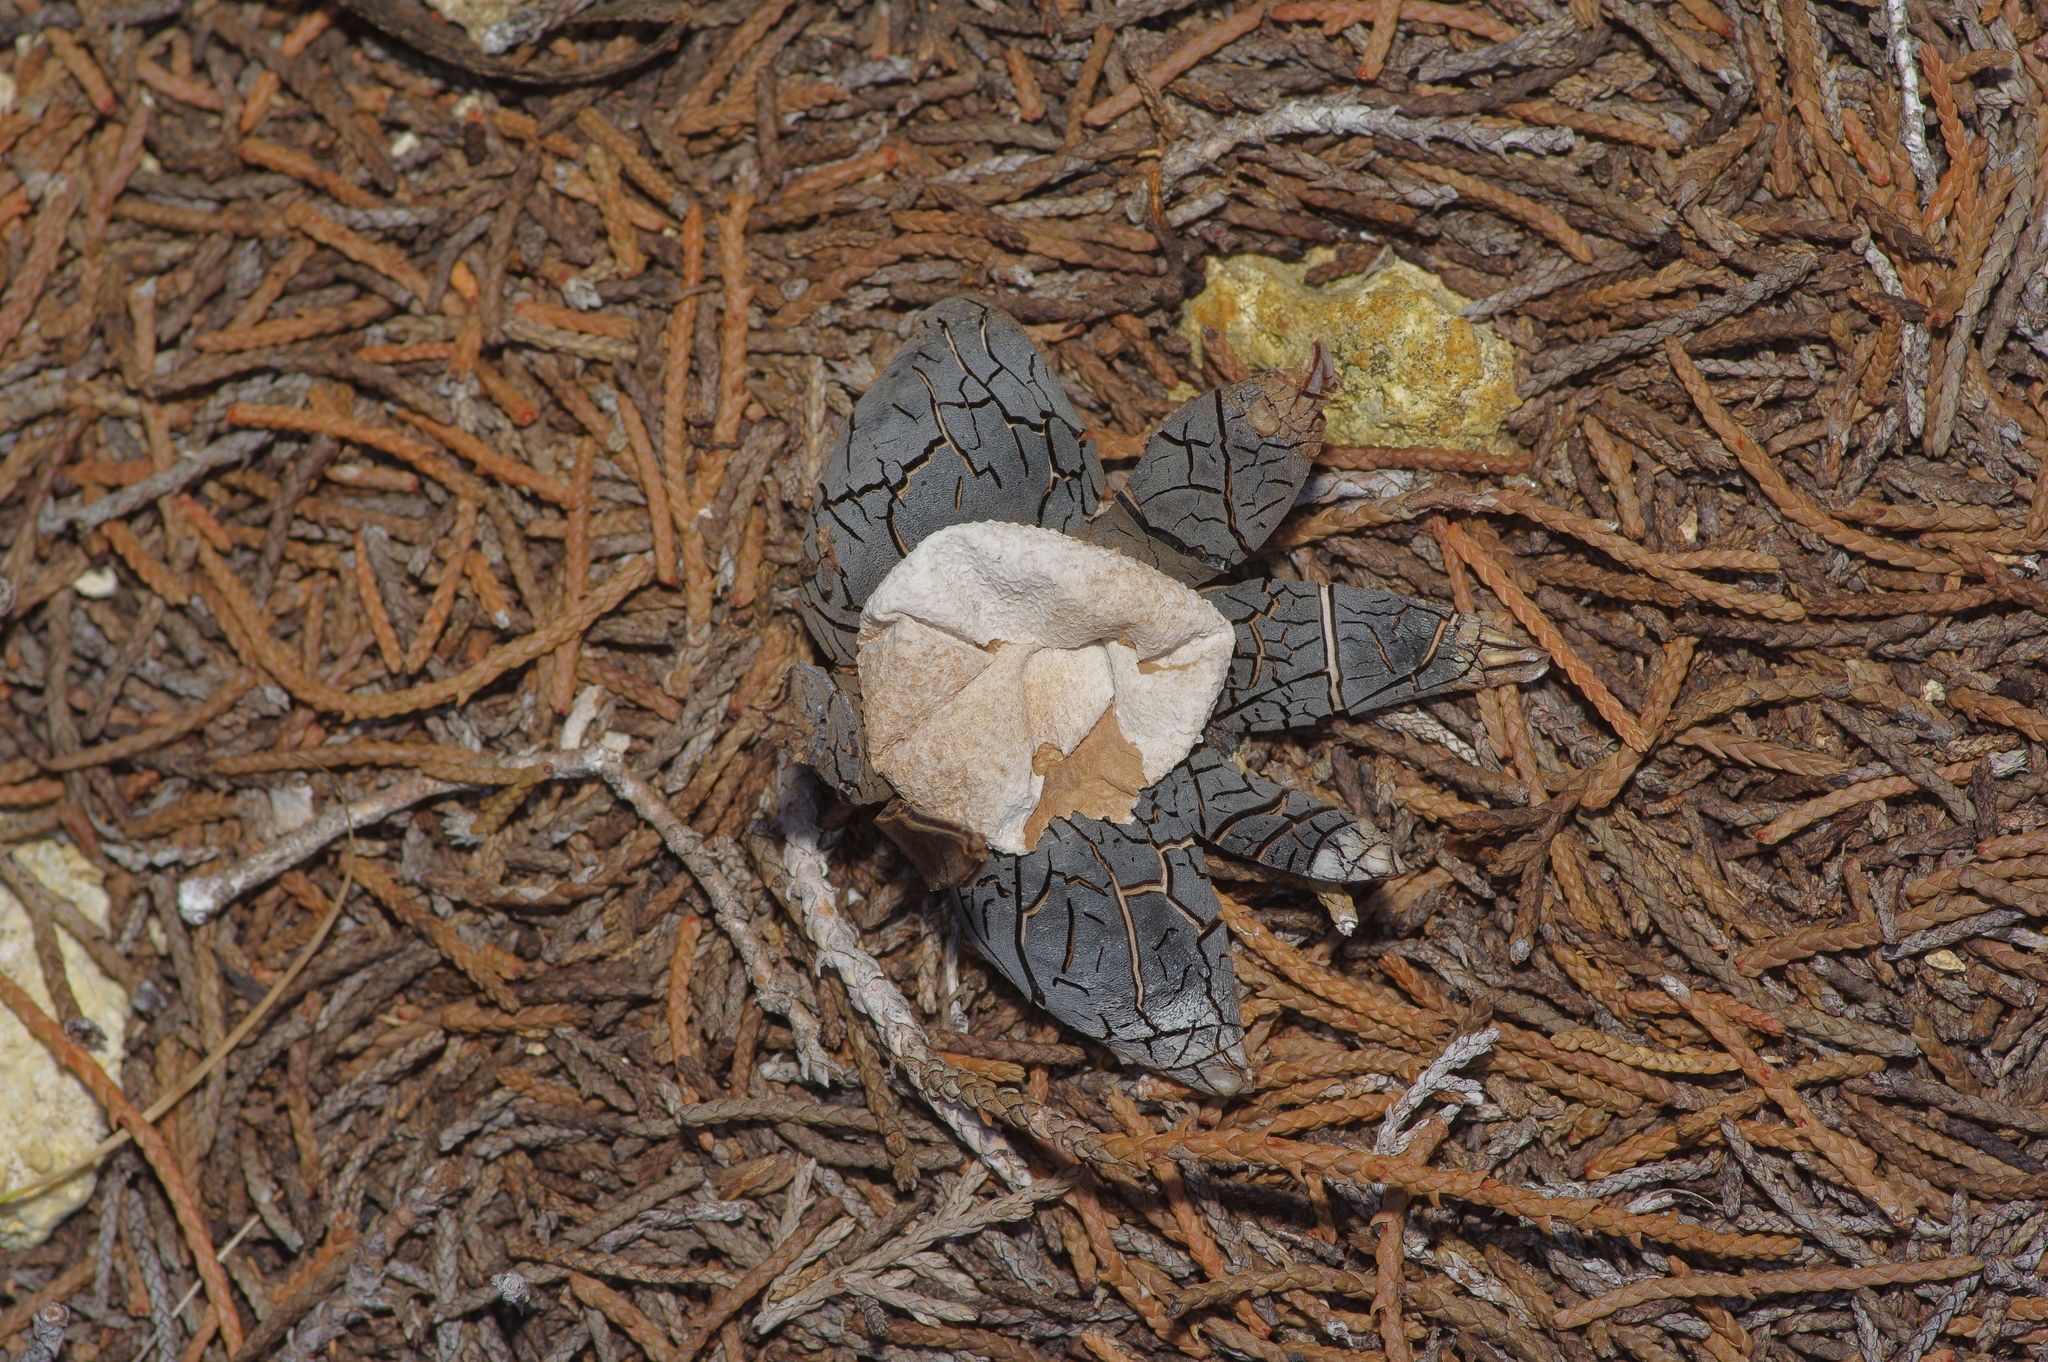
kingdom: Fungi
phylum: Basidiomycota
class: Agaricomycetes
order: Boletales
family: Diplocystidiaceae
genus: Astraeus
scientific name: Astraeus morganii
